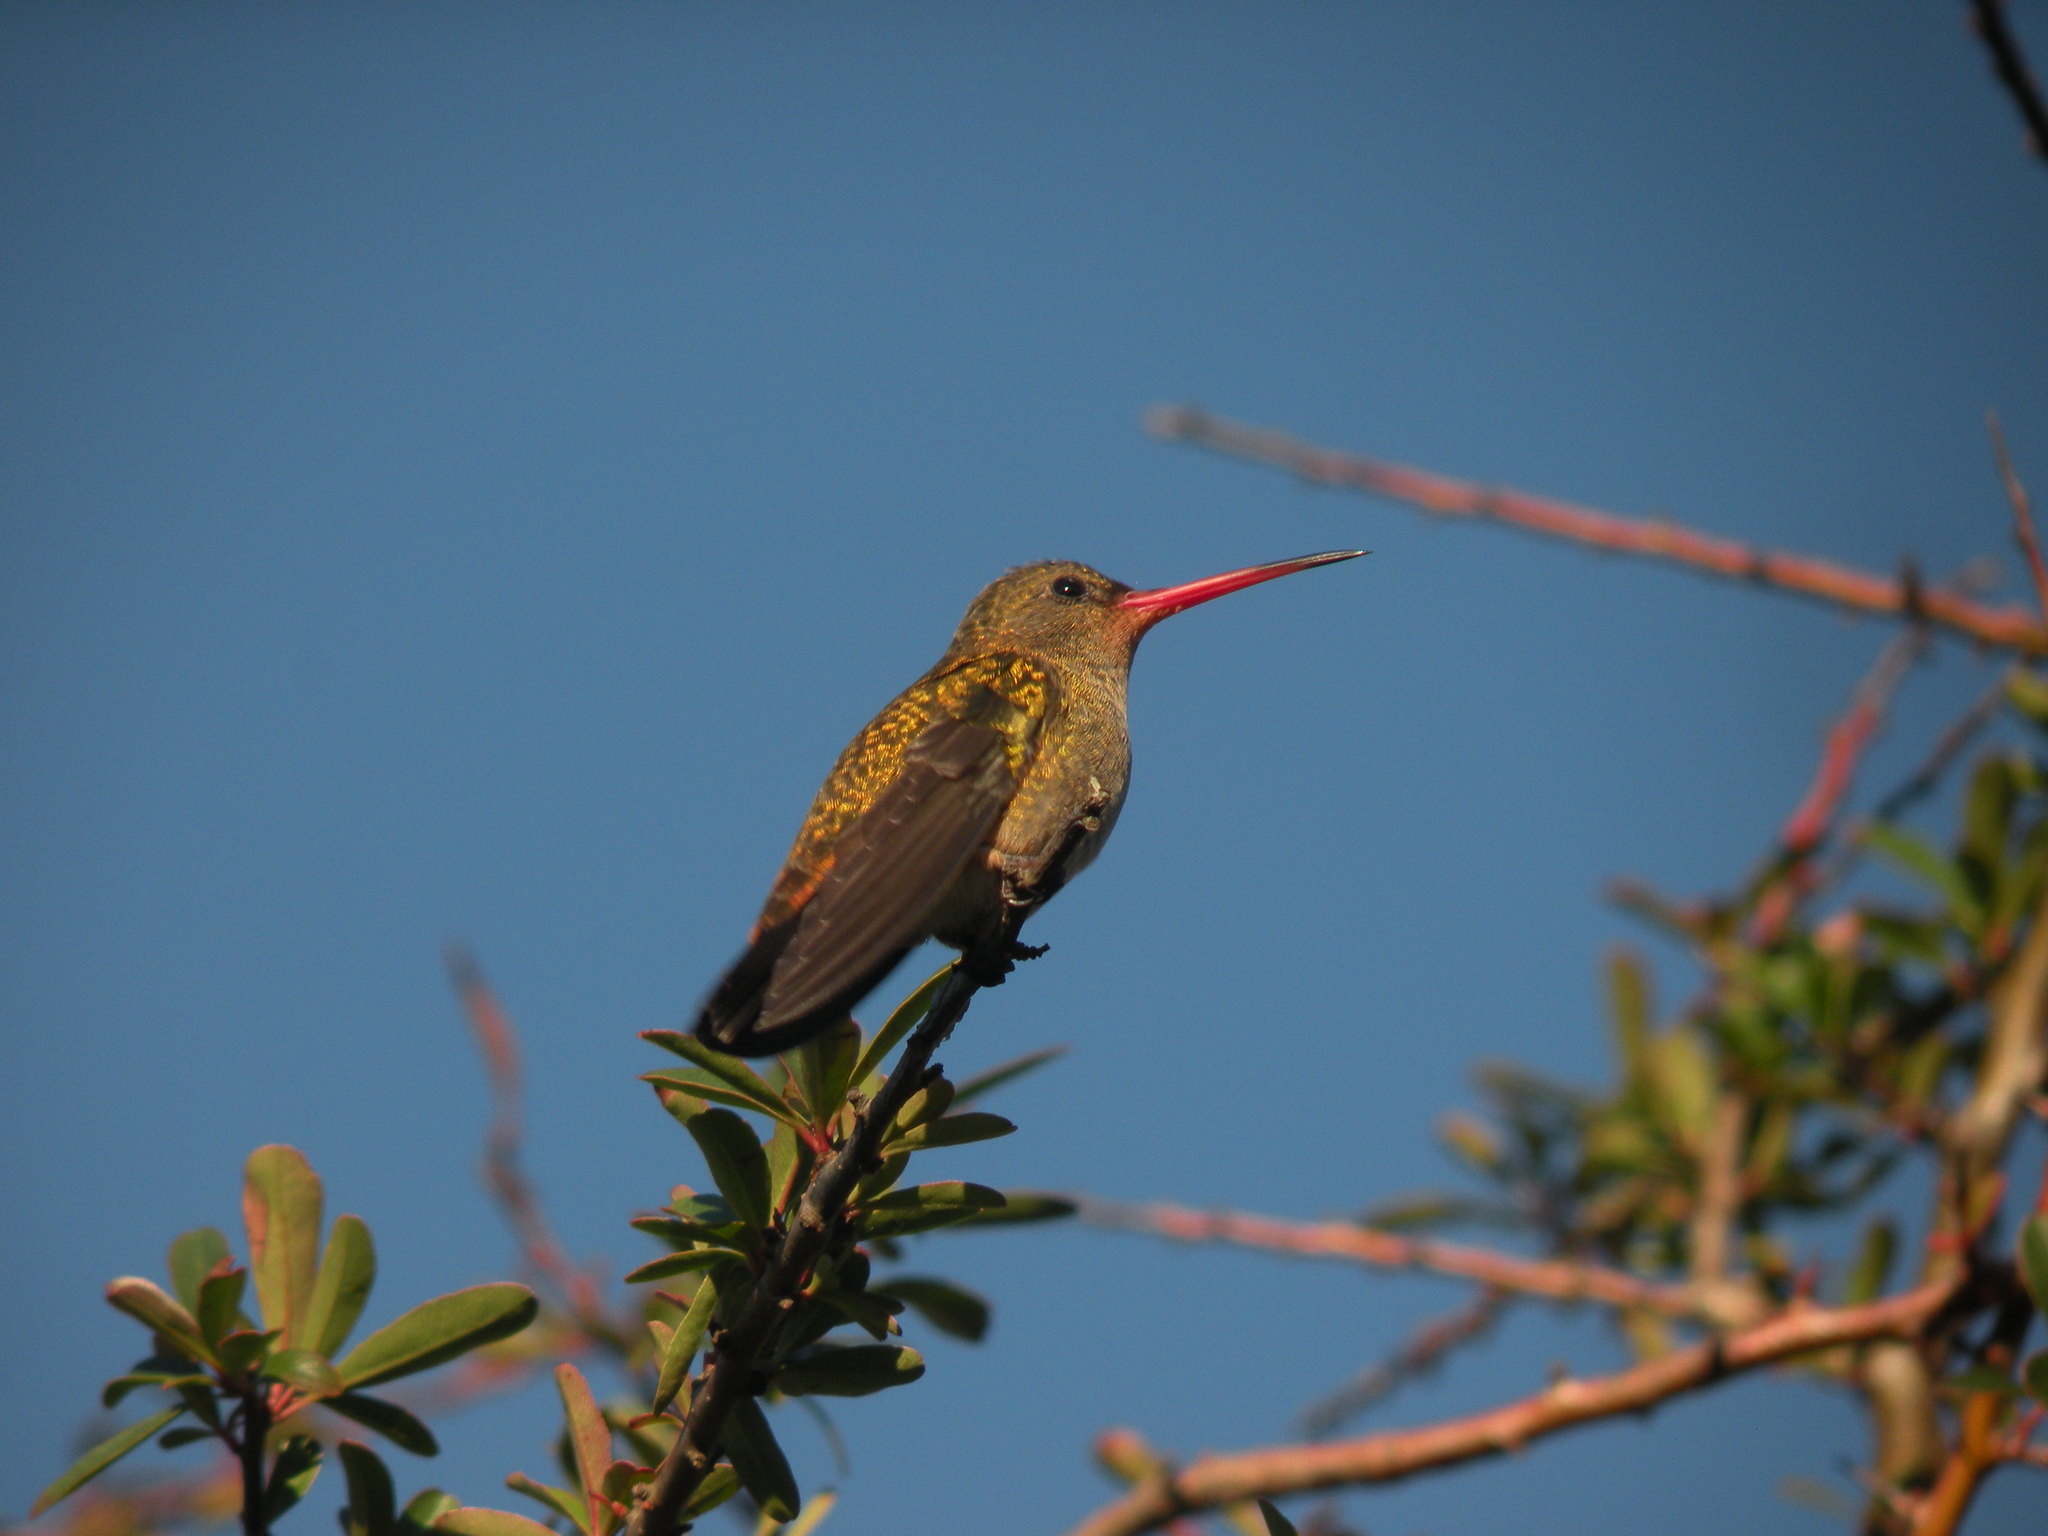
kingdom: Animalia
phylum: Chordata
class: Aves
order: Apodiformes
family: Trochilidae
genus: Hylocharis
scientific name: Hylocharis chrysura
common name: Gilded sapphire
